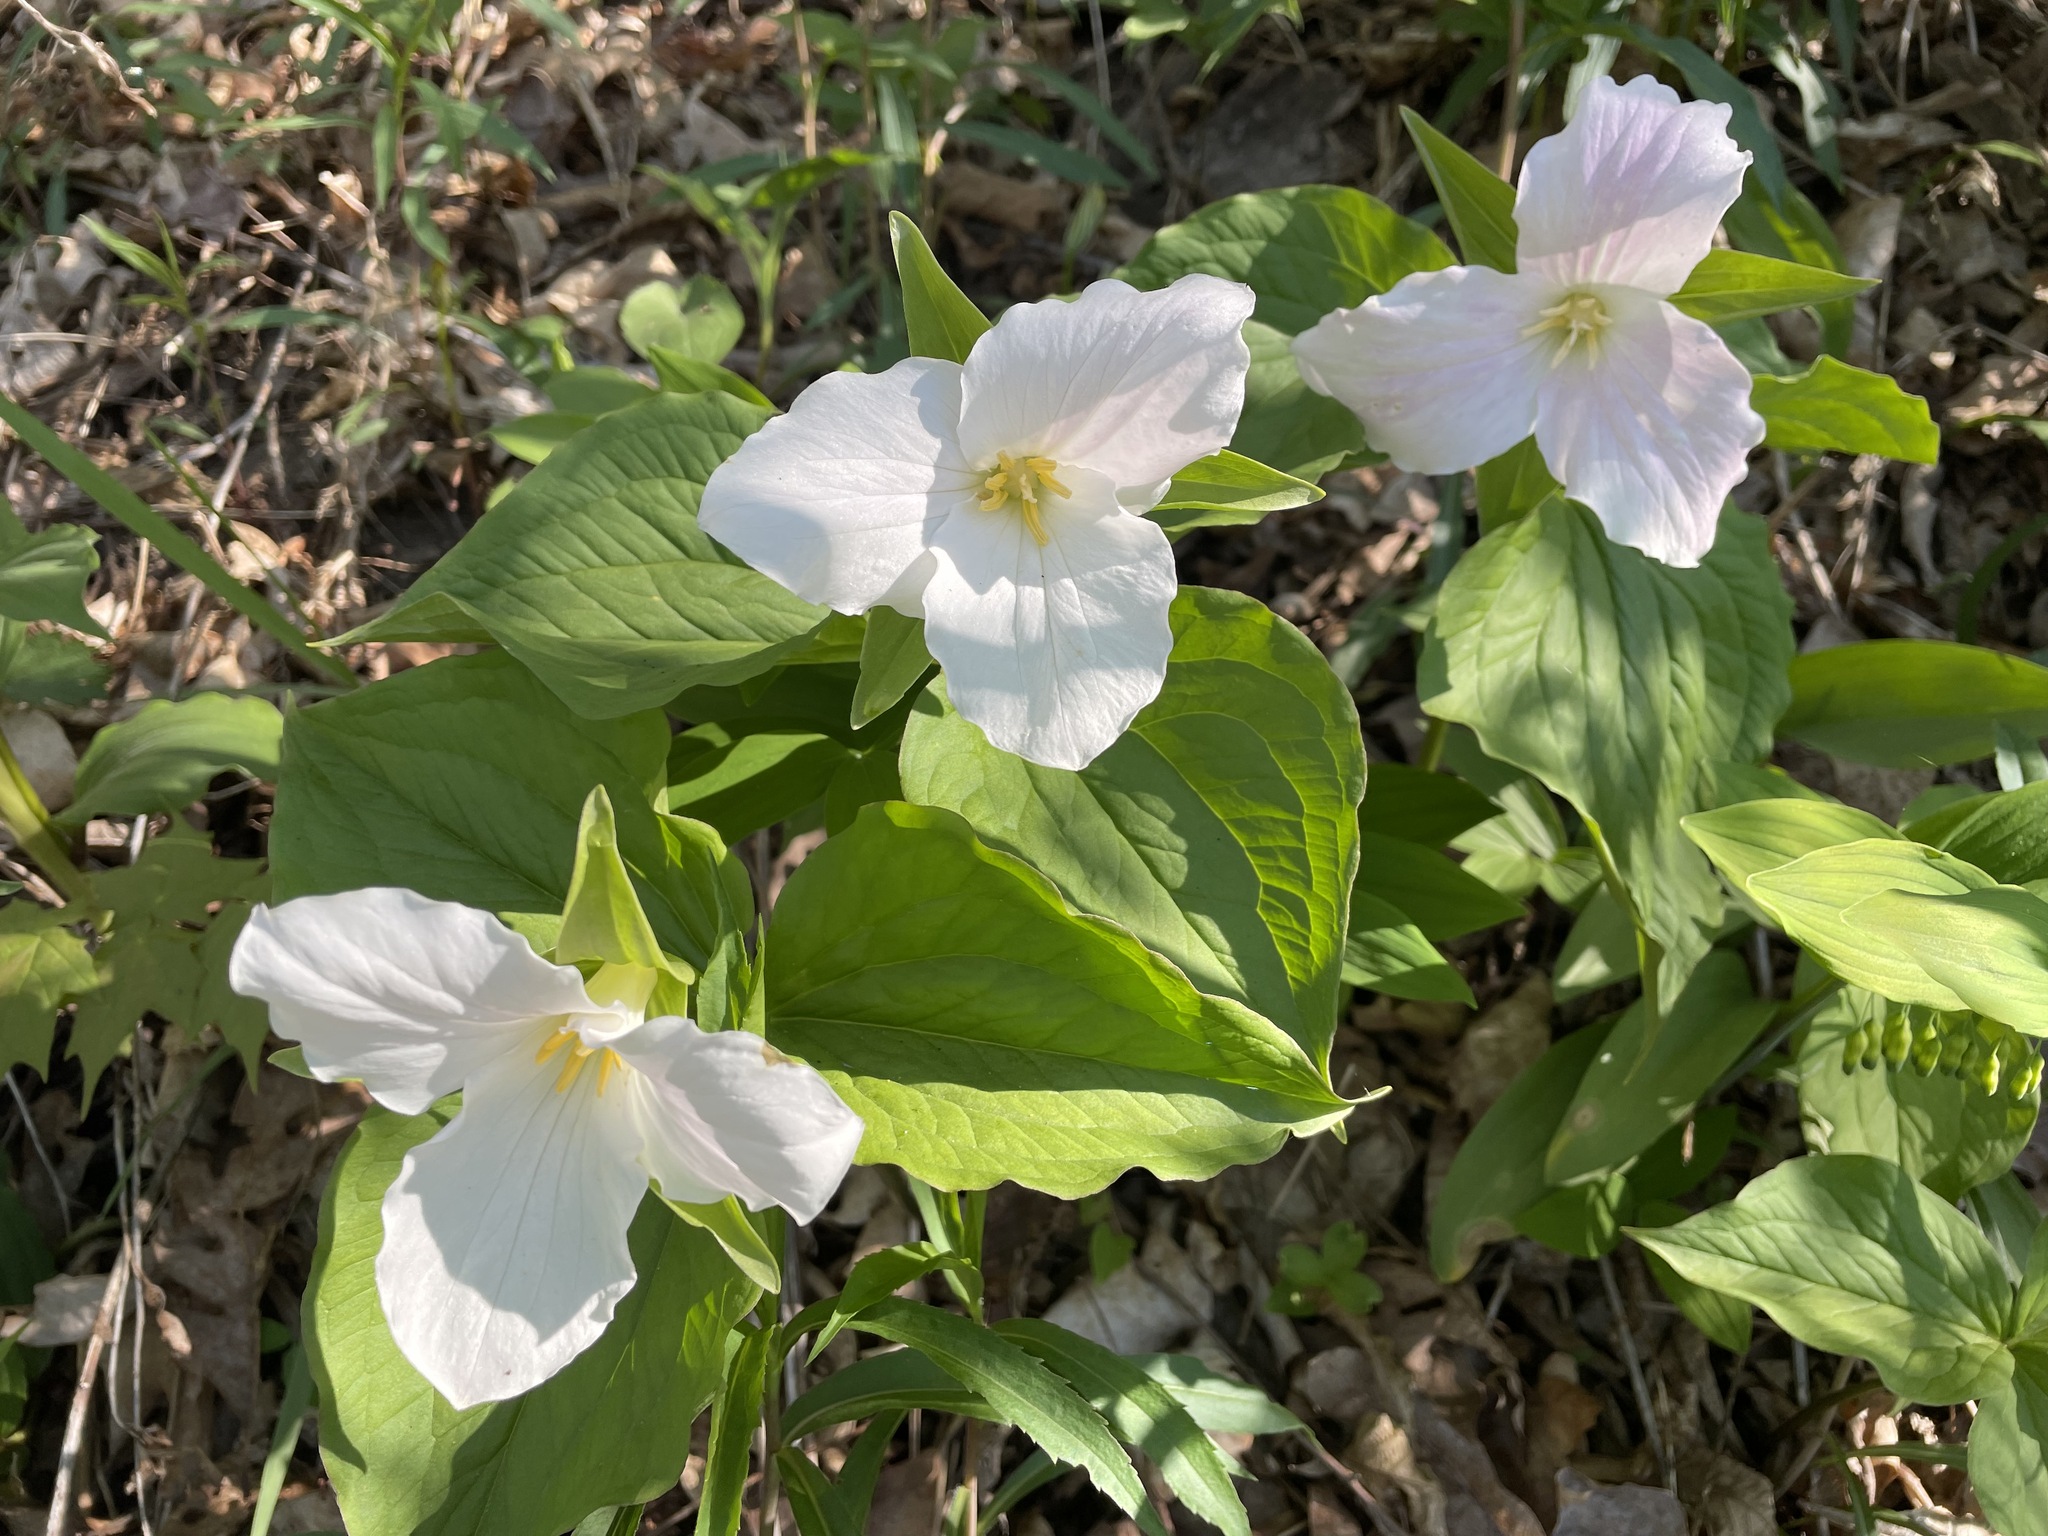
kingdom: Plantae
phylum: Tracheophyta
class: Liliopsida
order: Liliales
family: Melanthiaceae
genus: Trillium
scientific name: Trillium grandiflorum
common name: Great white trillium
